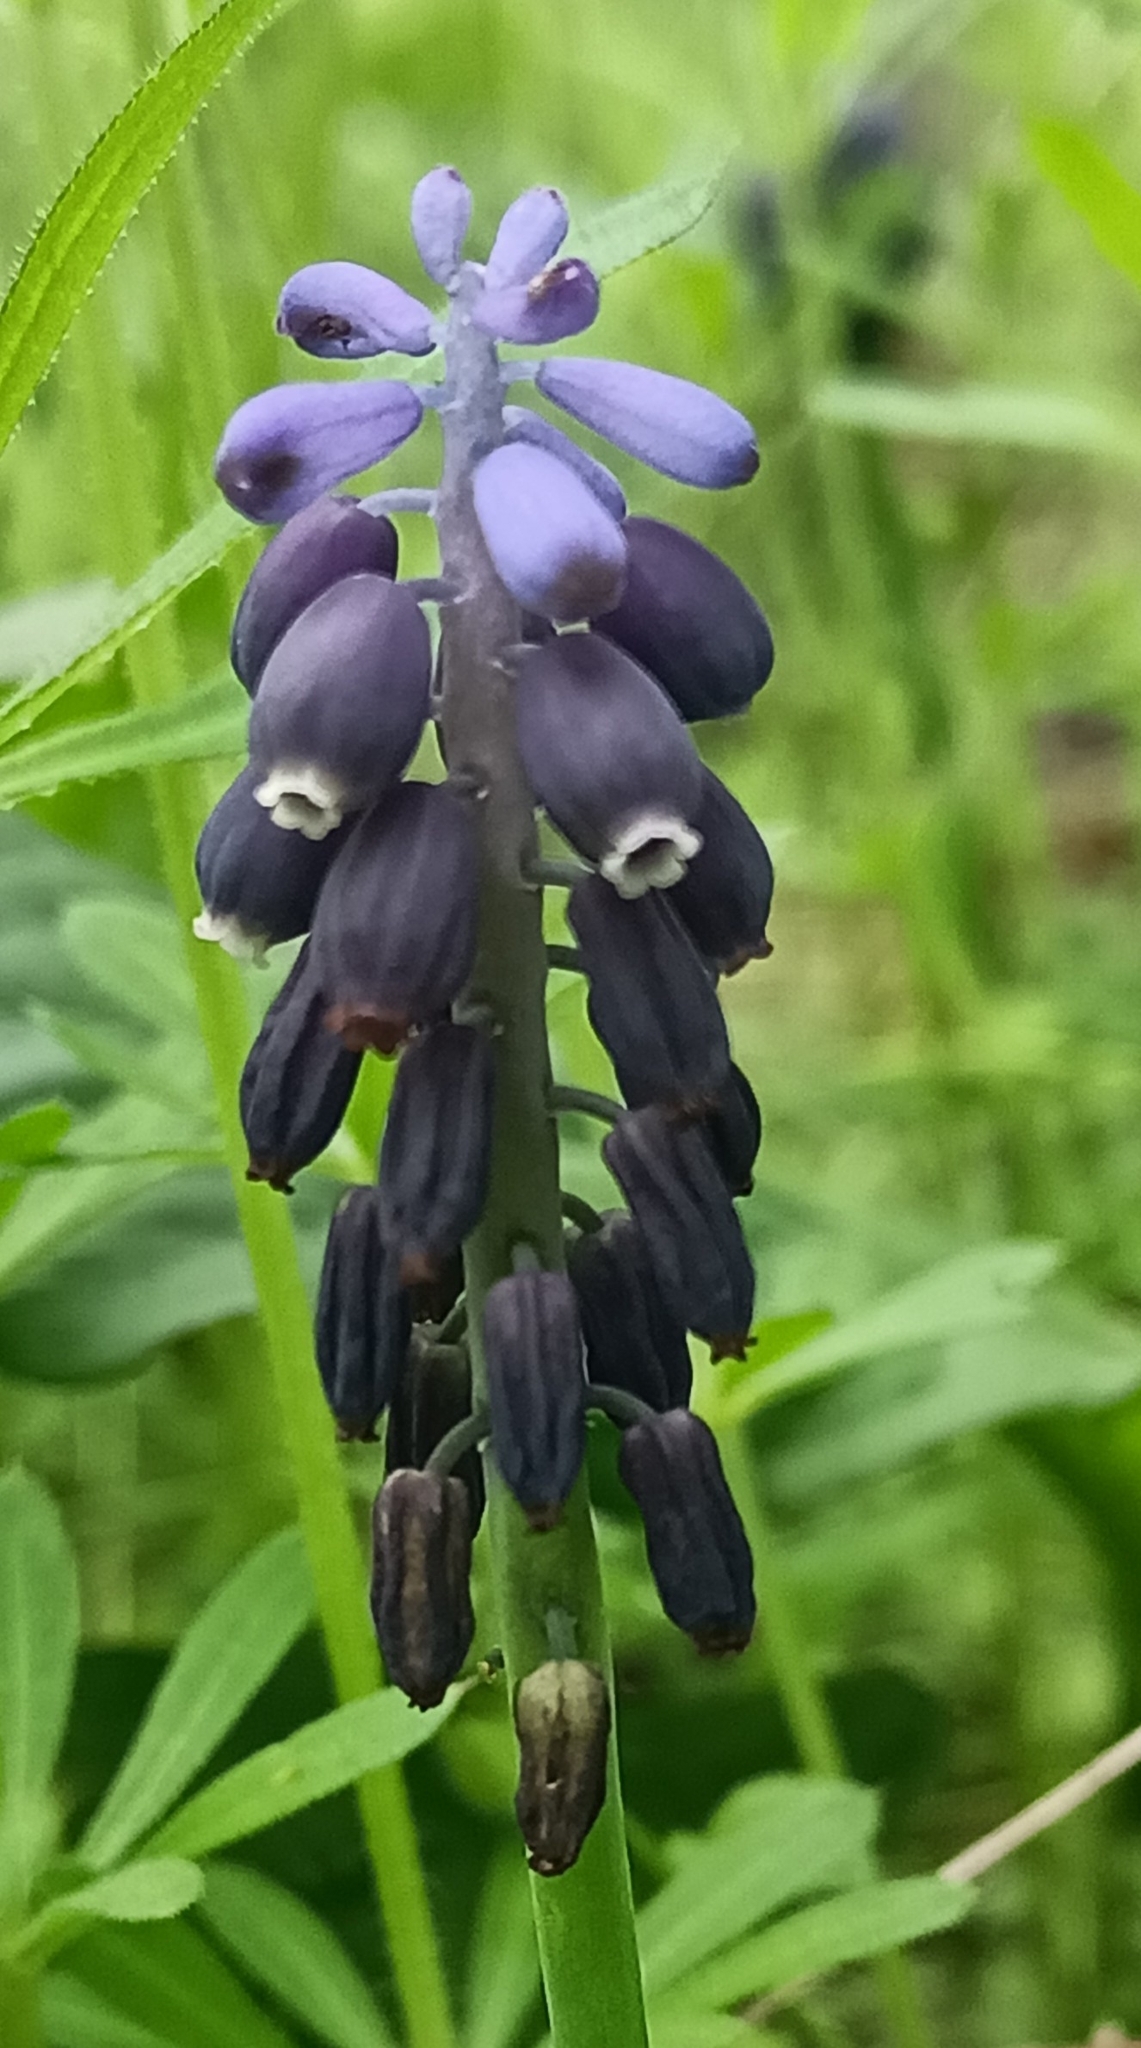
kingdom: Plantae
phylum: Tracheophyta
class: Liliopsida
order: Asparagales
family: Asparagaceae
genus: Muscari
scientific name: Muscari neglectum
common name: Grape-hyacinth
